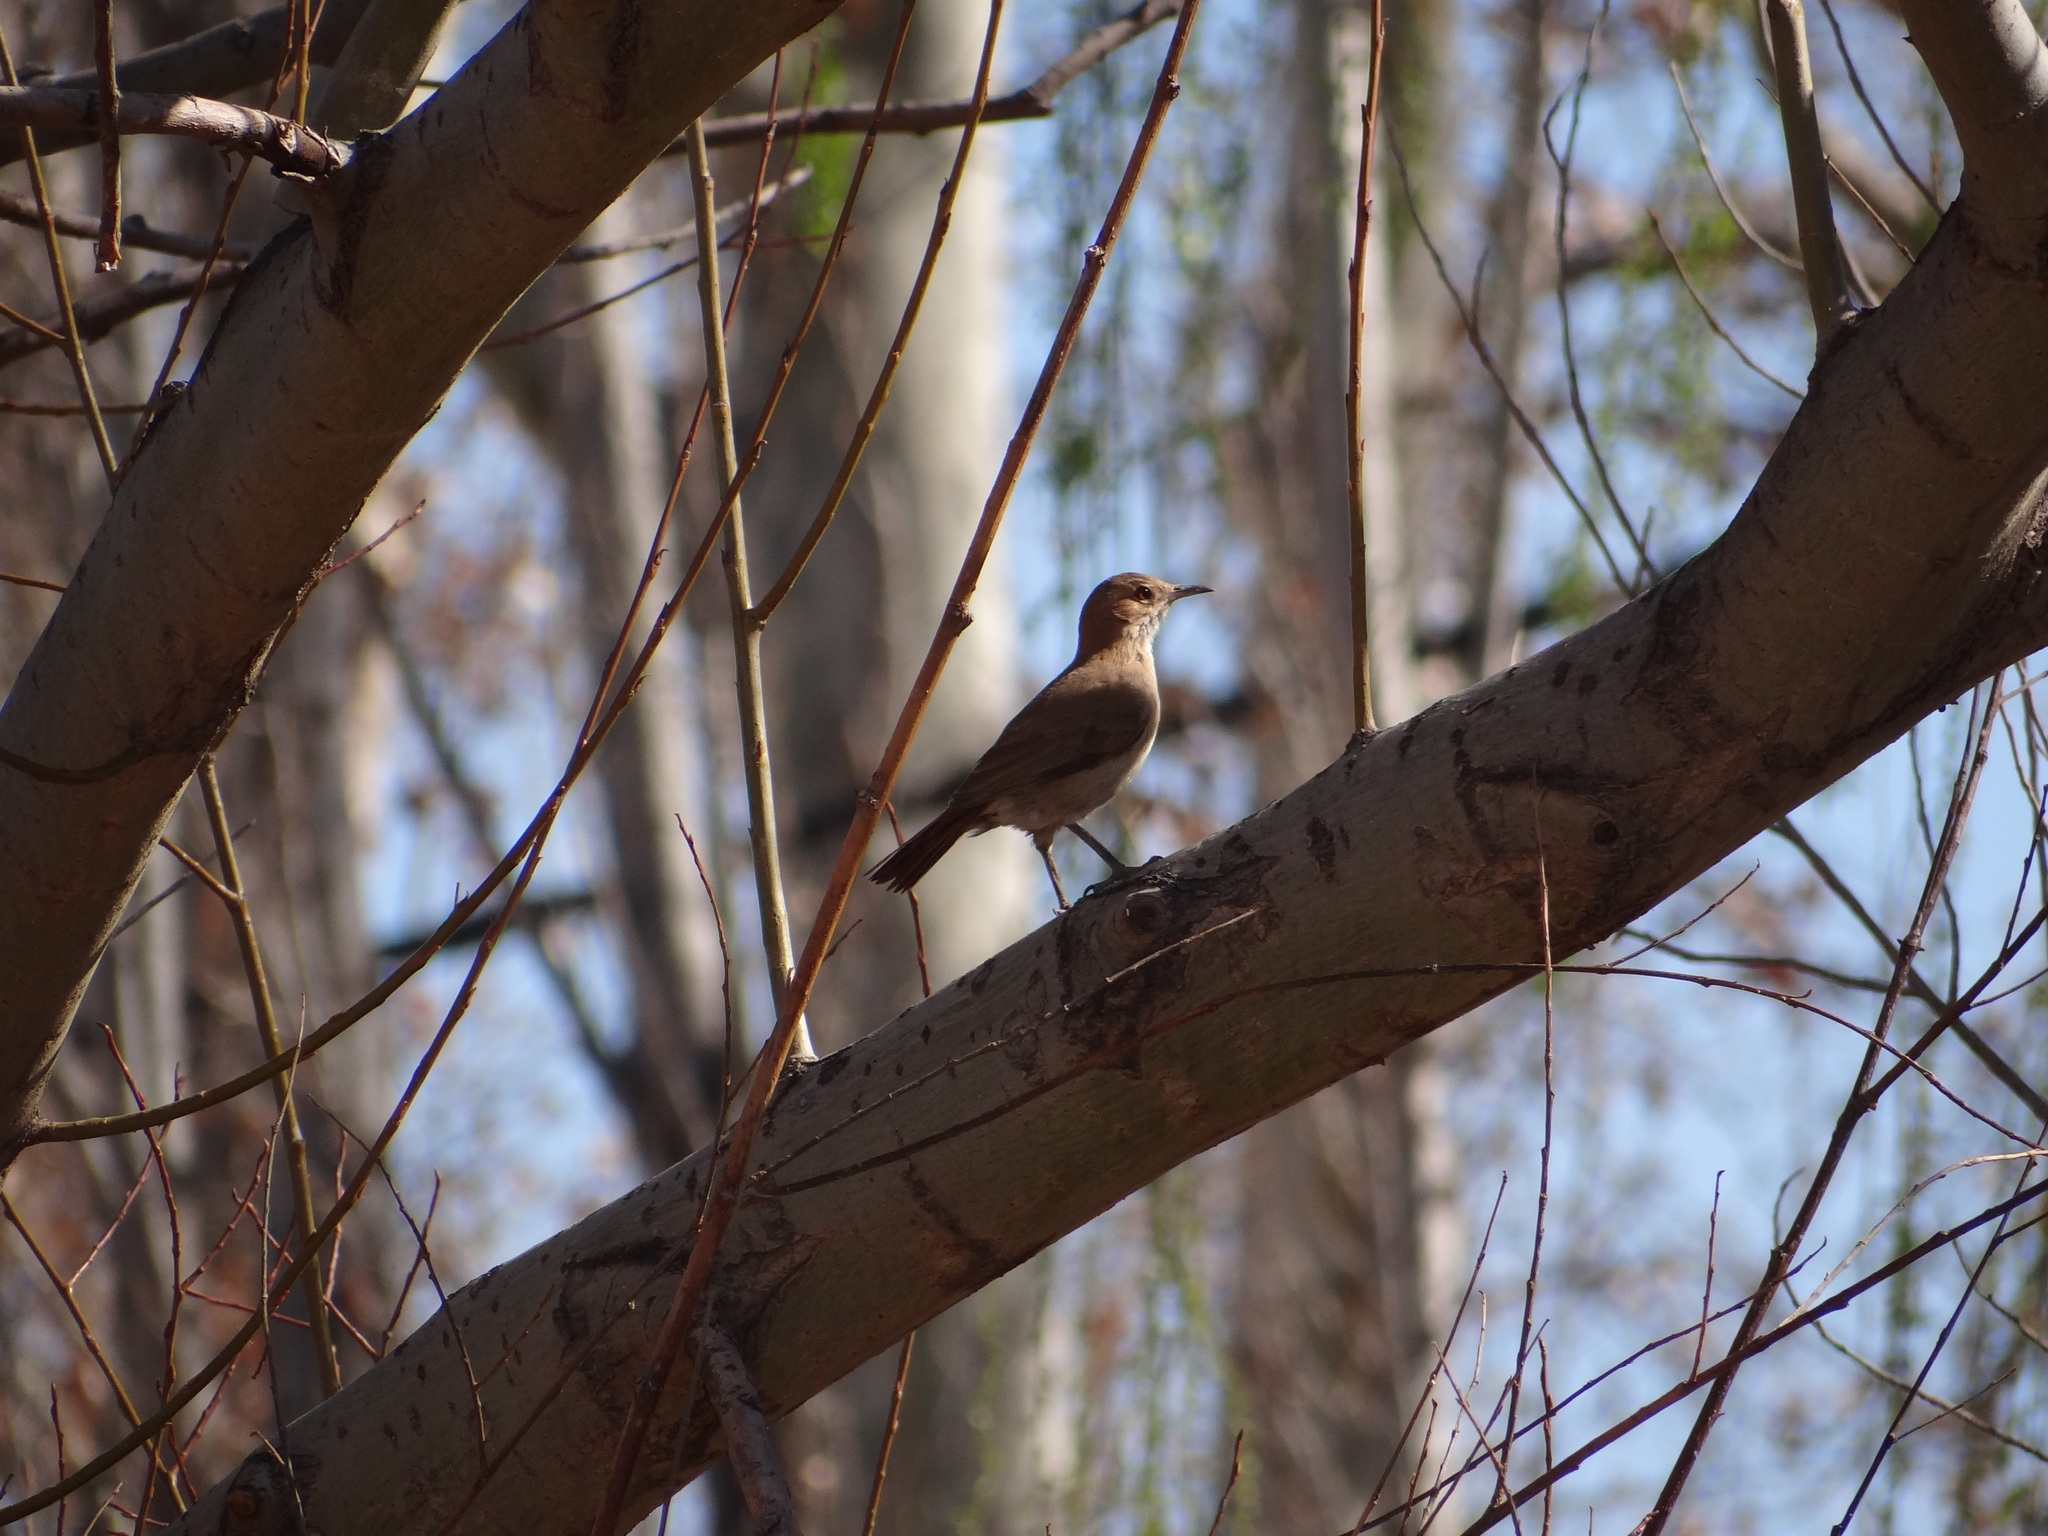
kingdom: Animalia
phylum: Chordata
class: Aves
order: Passeriformes
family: Furnariidae
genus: Furnarius
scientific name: Furnarius rufus
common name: Rufous hornero
